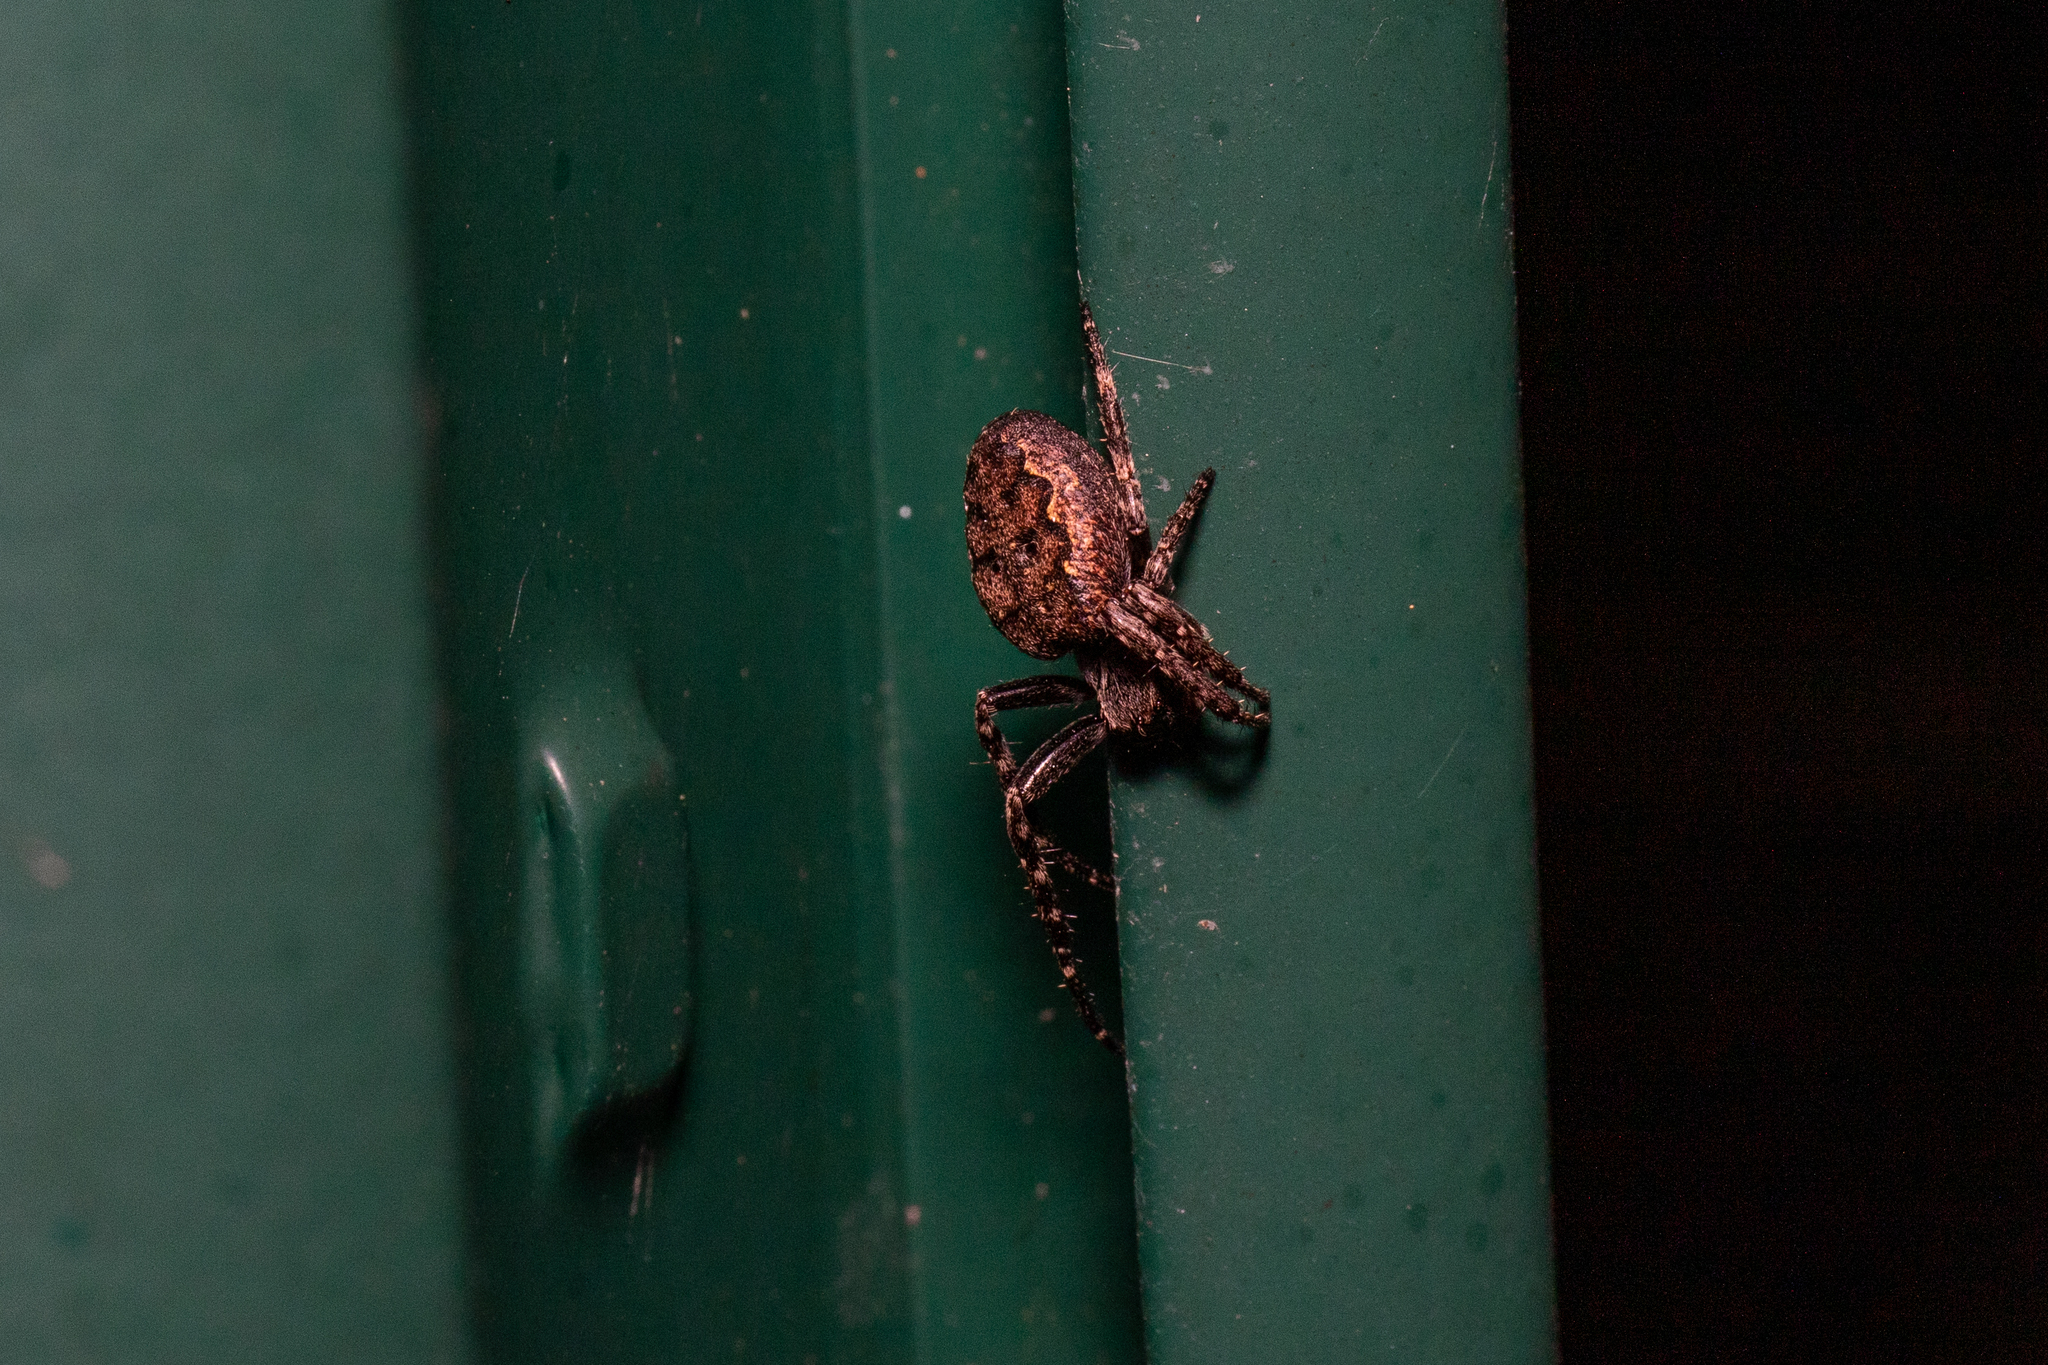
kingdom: Animalia
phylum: Arthropoda
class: Arachnida
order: Araneae
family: Araneidae
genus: Nuctenea
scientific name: Nuctenea umbratica
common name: Toad spider
